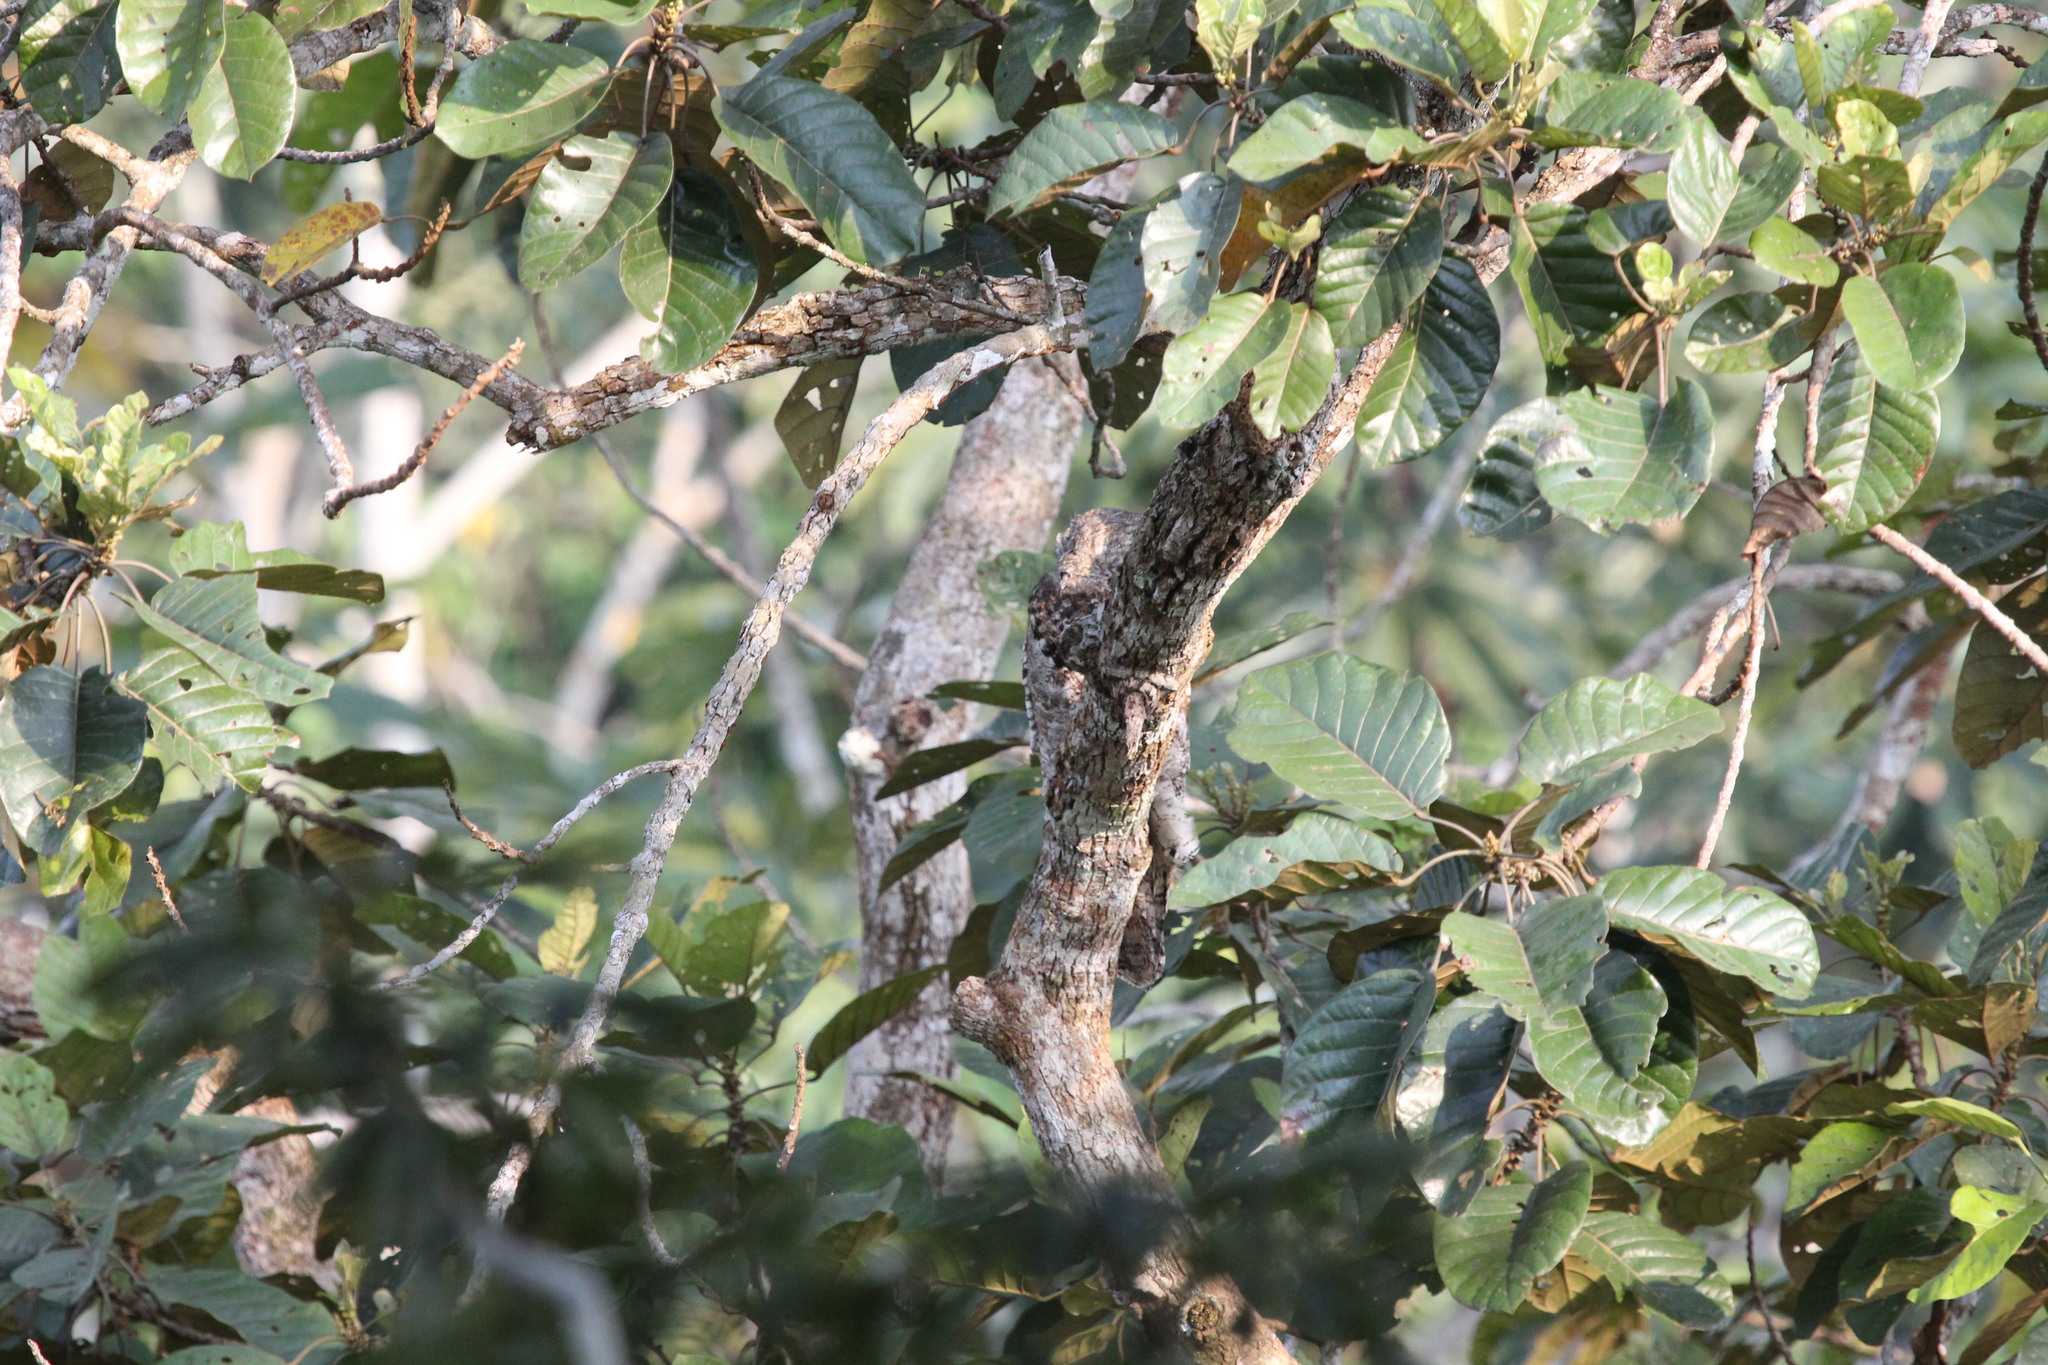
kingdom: Animalia
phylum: Chordata
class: Aves
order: Nyctibiiformes
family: Nyctibiidae
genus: Nyctibius
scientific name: Nyctibius grandis
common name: Great potoo
